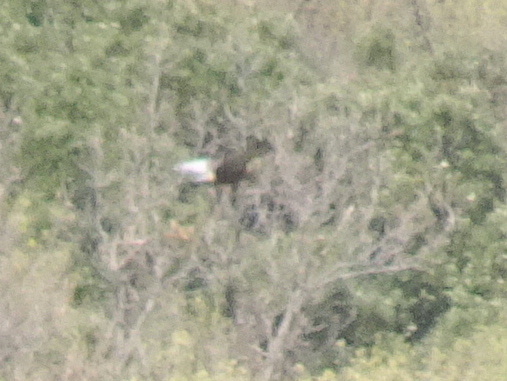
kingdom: Animalia
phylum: Chordata
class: Aves
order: Accipitriformes
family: Accipitridae
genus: Circus
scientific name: Circus aeruginosus
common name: Western marsh harrier
